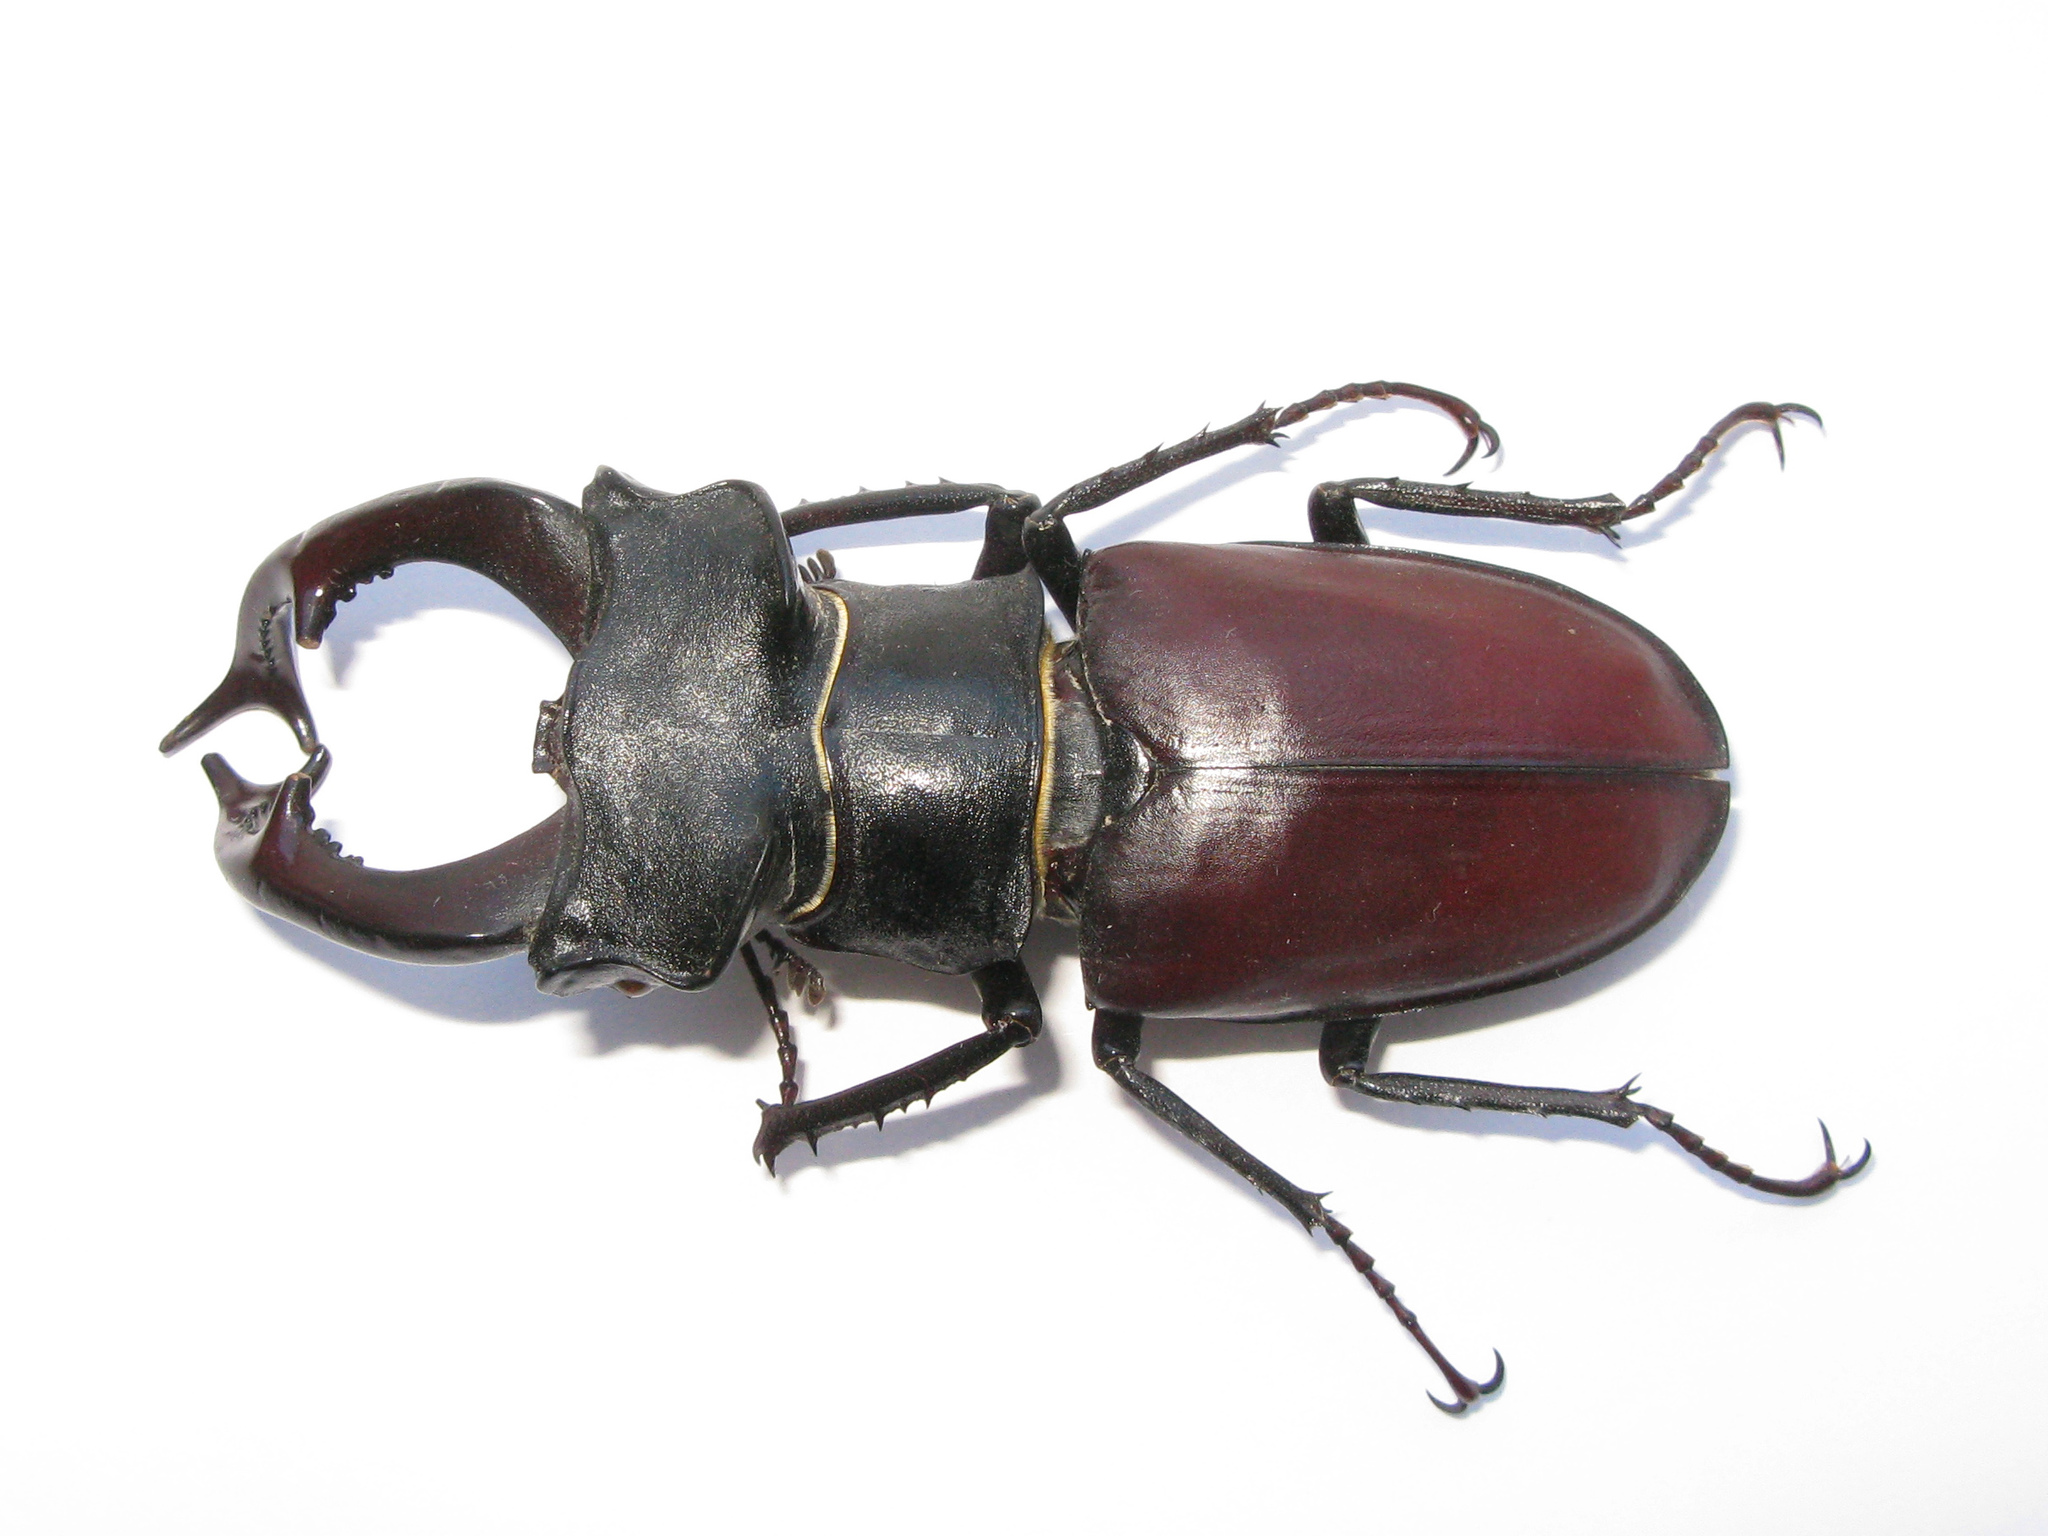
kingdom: Animalia
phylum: Arthropoda
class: Insecta
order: Coleoptera
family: Lucanidae
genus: Lucanus
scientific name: Lucanus cervus
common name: Stag beetle
